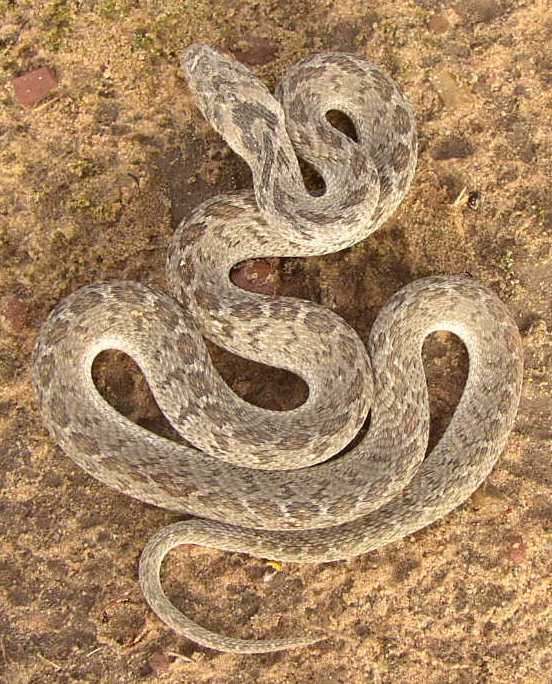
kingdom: Animalia
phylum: Chordata
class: Squamata
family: Colubridae
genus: Dasypeltis
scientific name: Dasypeltis scabra
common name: Common egg eater
